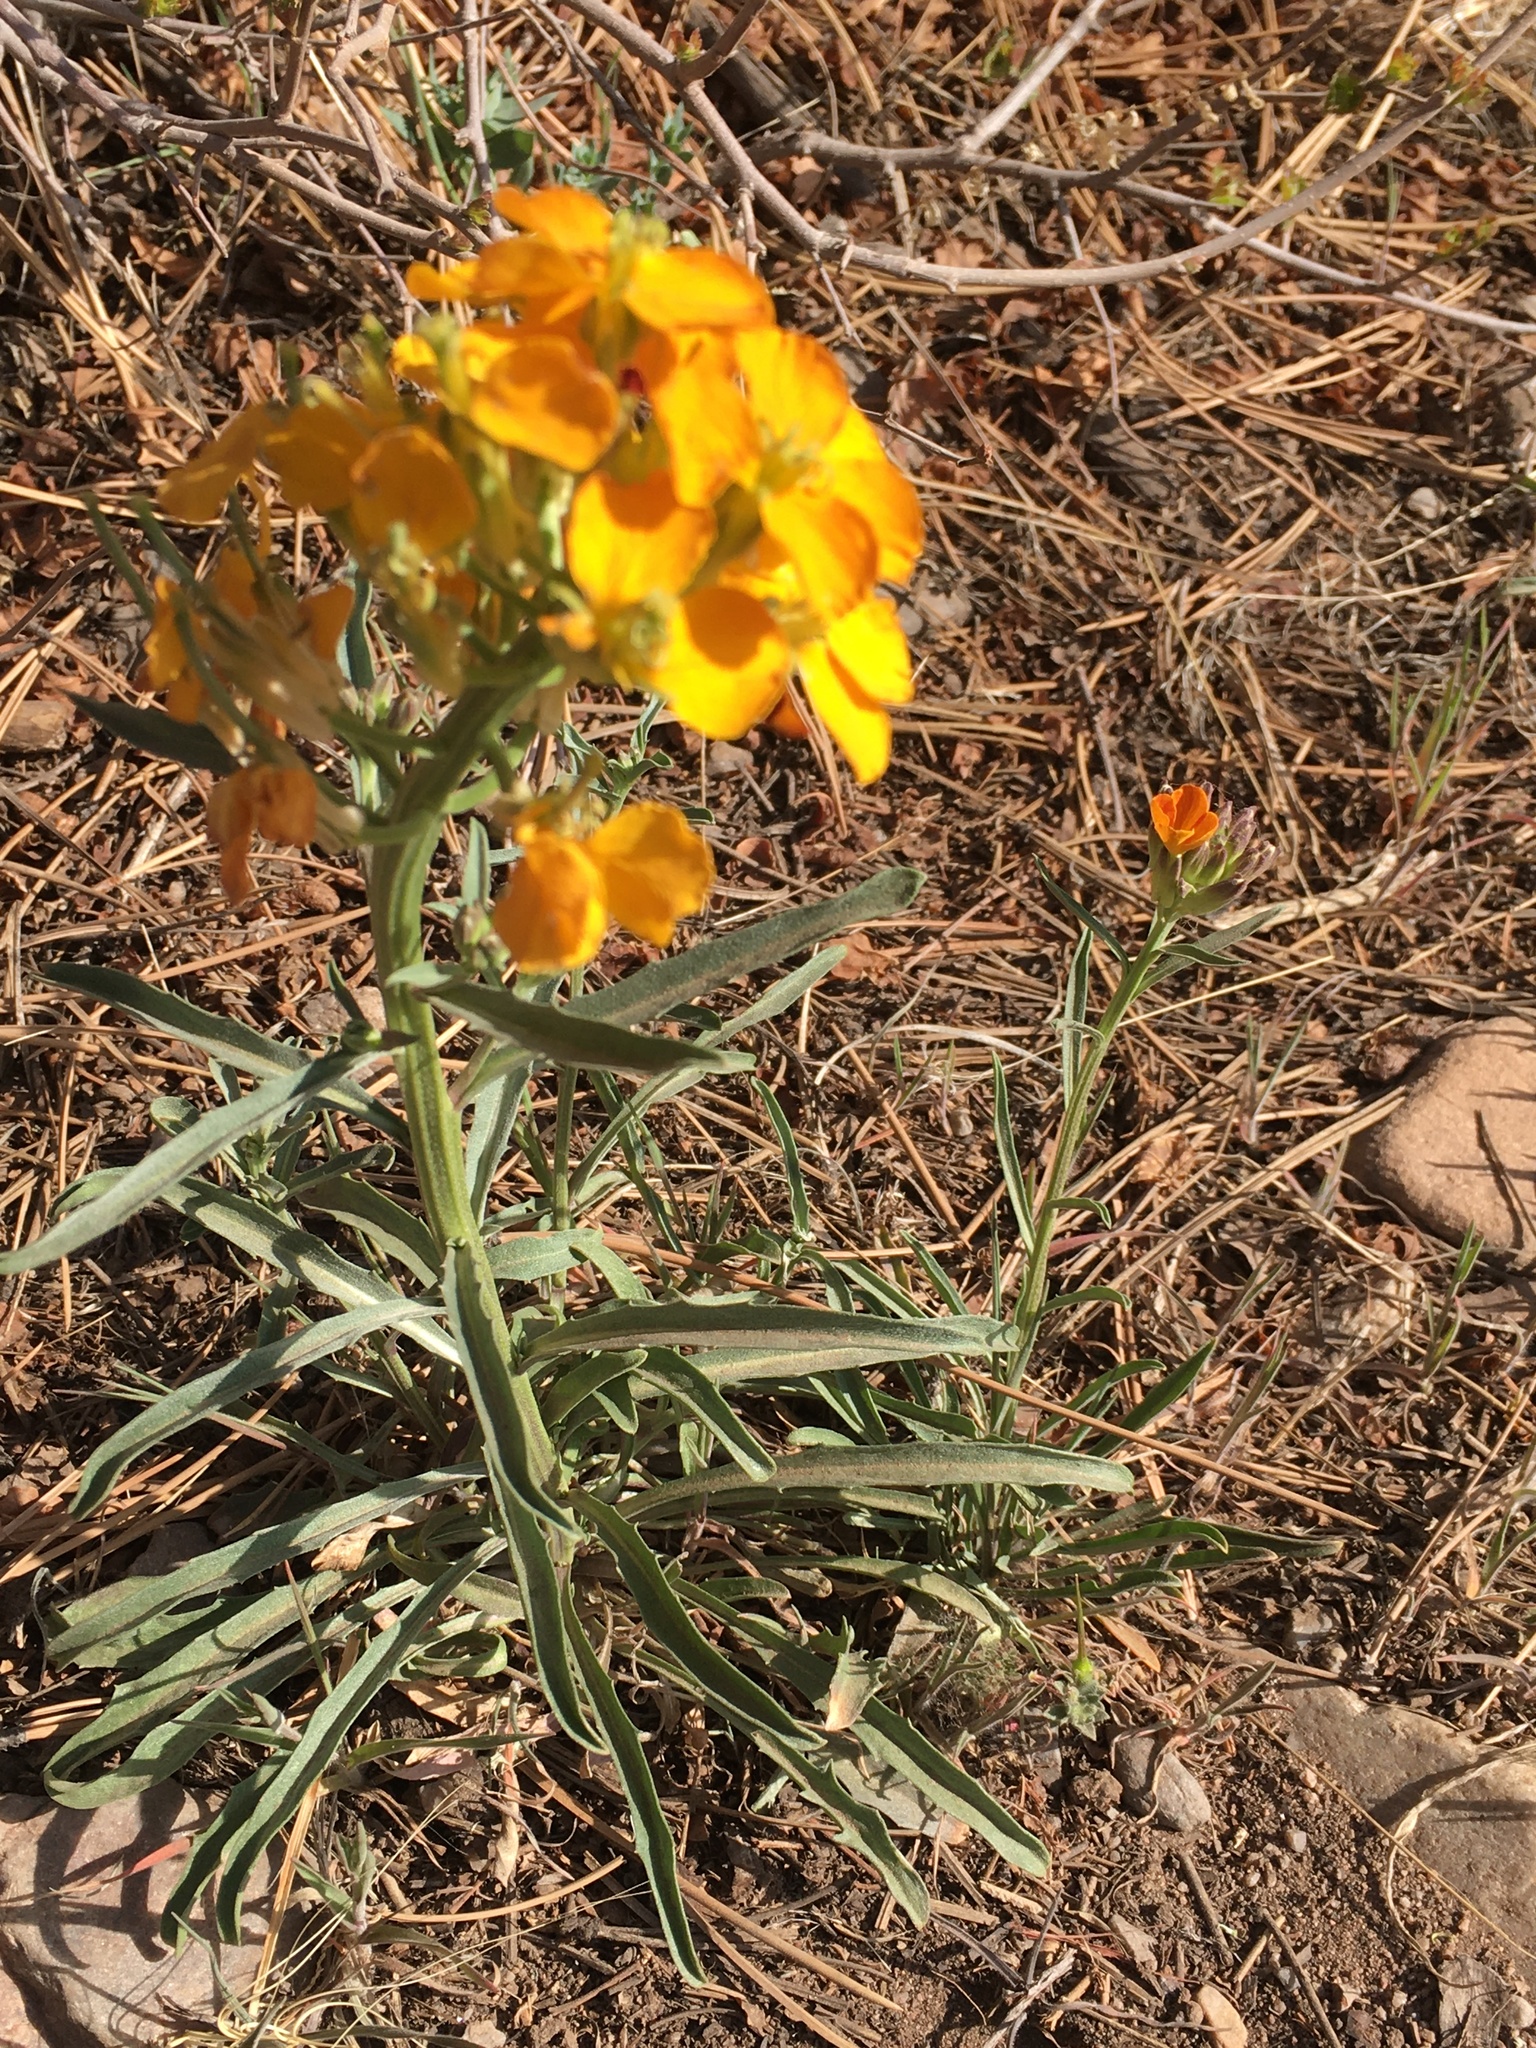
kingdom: Plantae
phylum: Tracheophyta
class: Magnoliopsida
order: Brassicales
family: Brassicaceae
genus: Erysimum
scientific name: Erysimum capitatum
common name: Western wallflower
